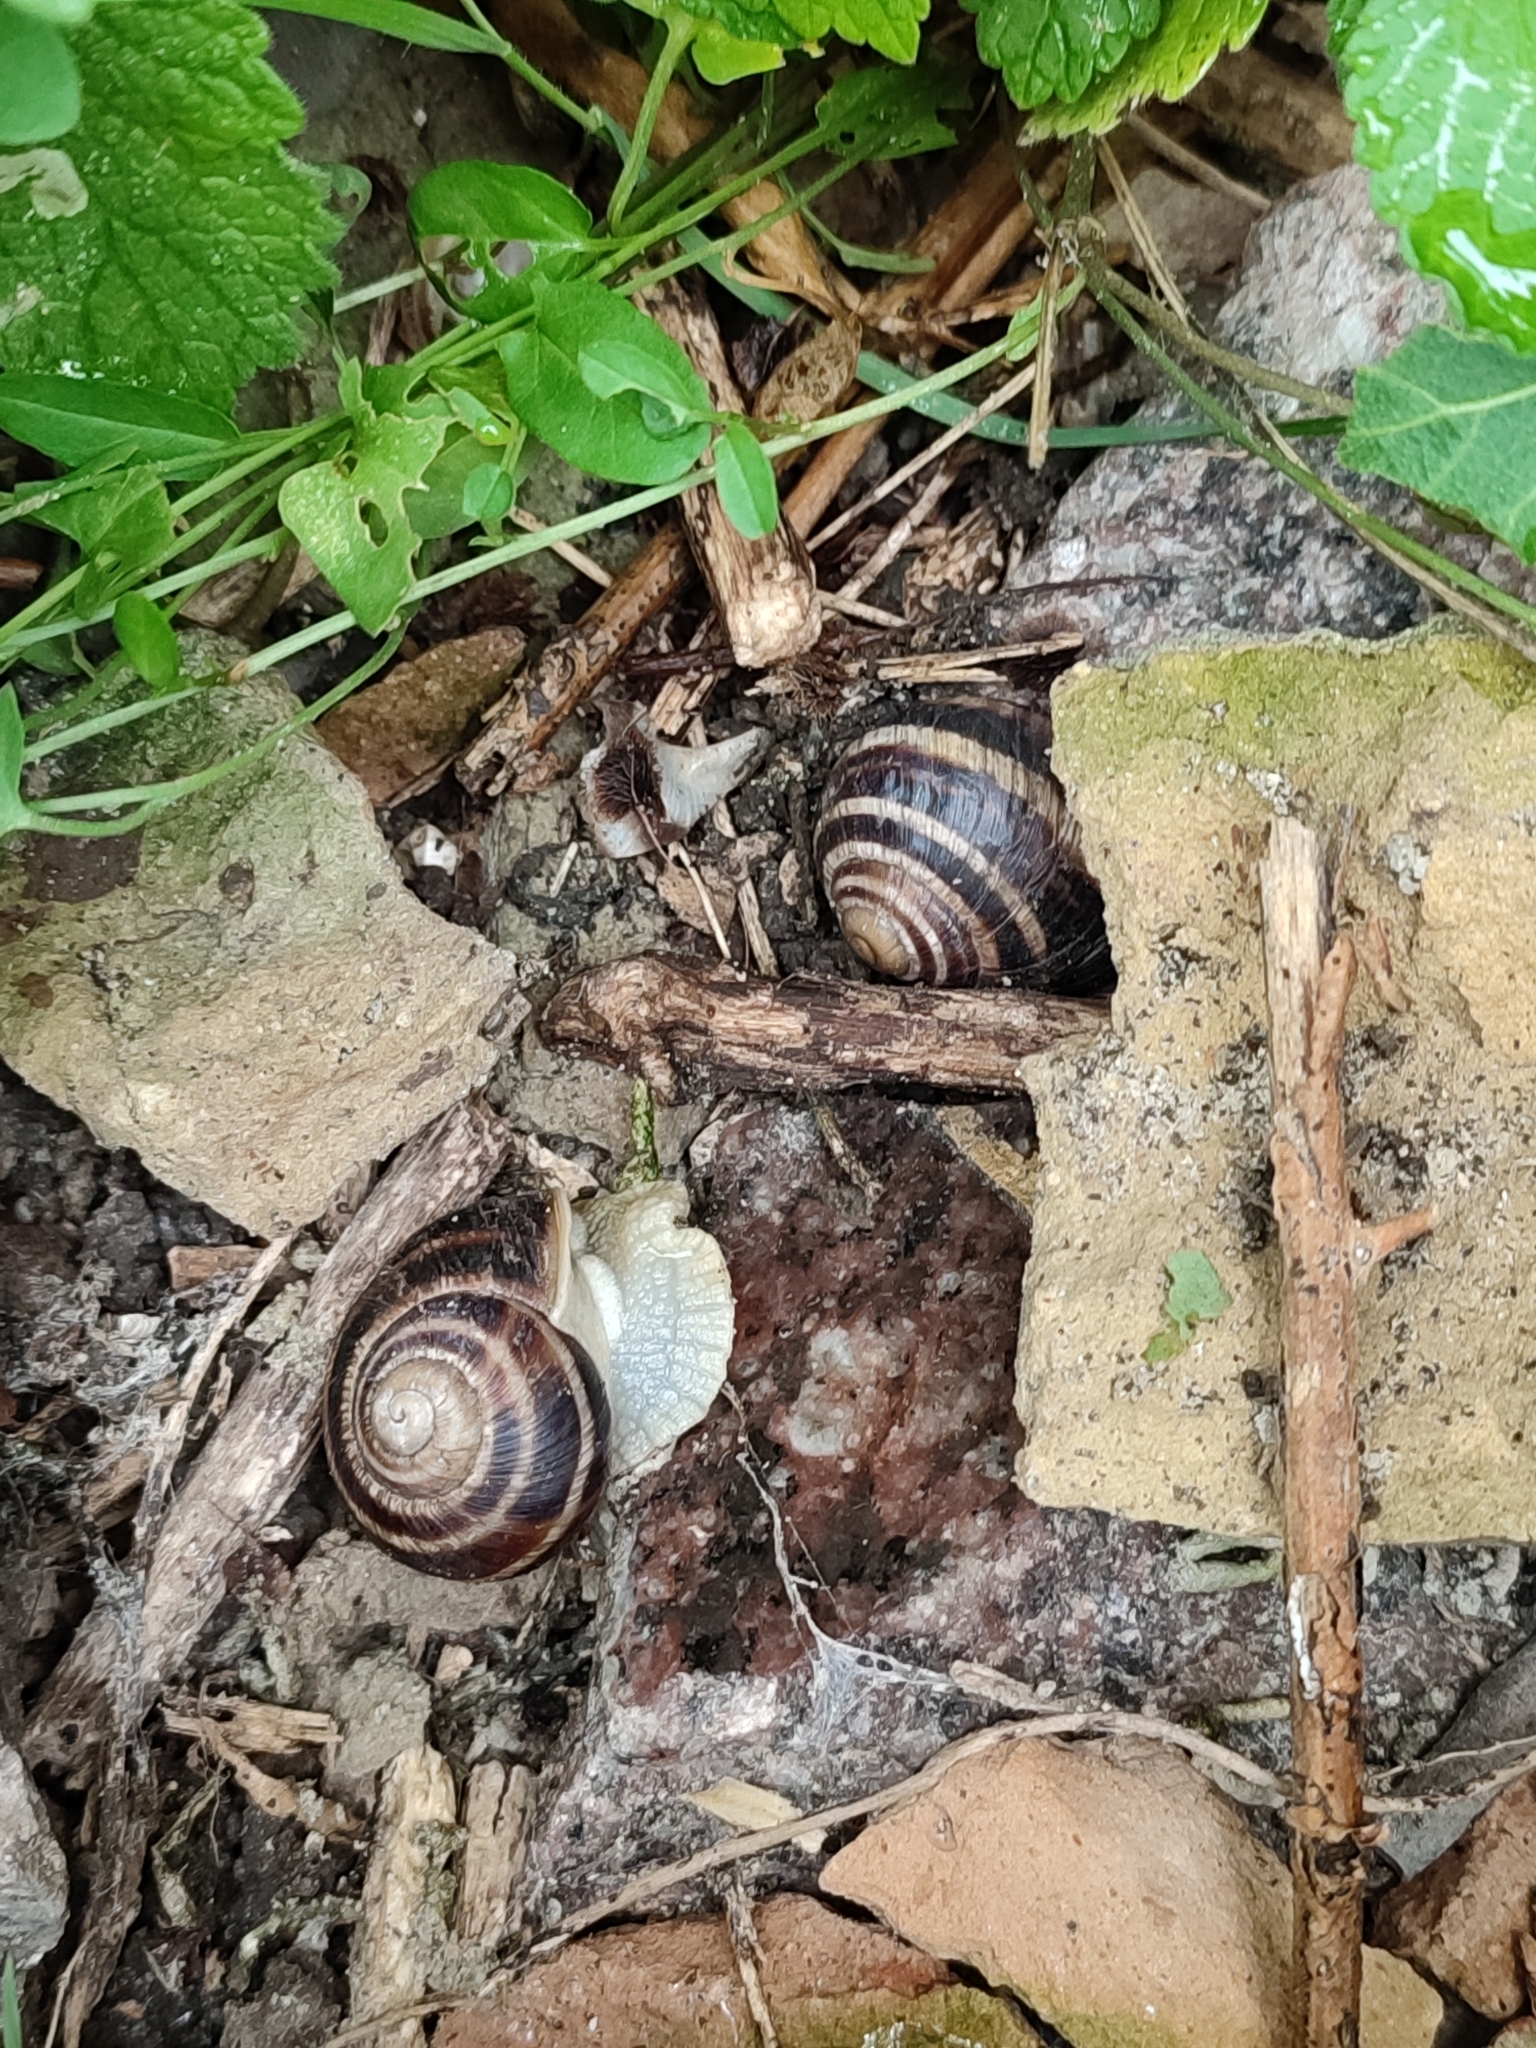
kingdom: Animalia
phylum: Mollusca
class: Gastropoda
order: Stylommatophora
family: Helicidae
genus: Helix
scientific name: Helix albescens
